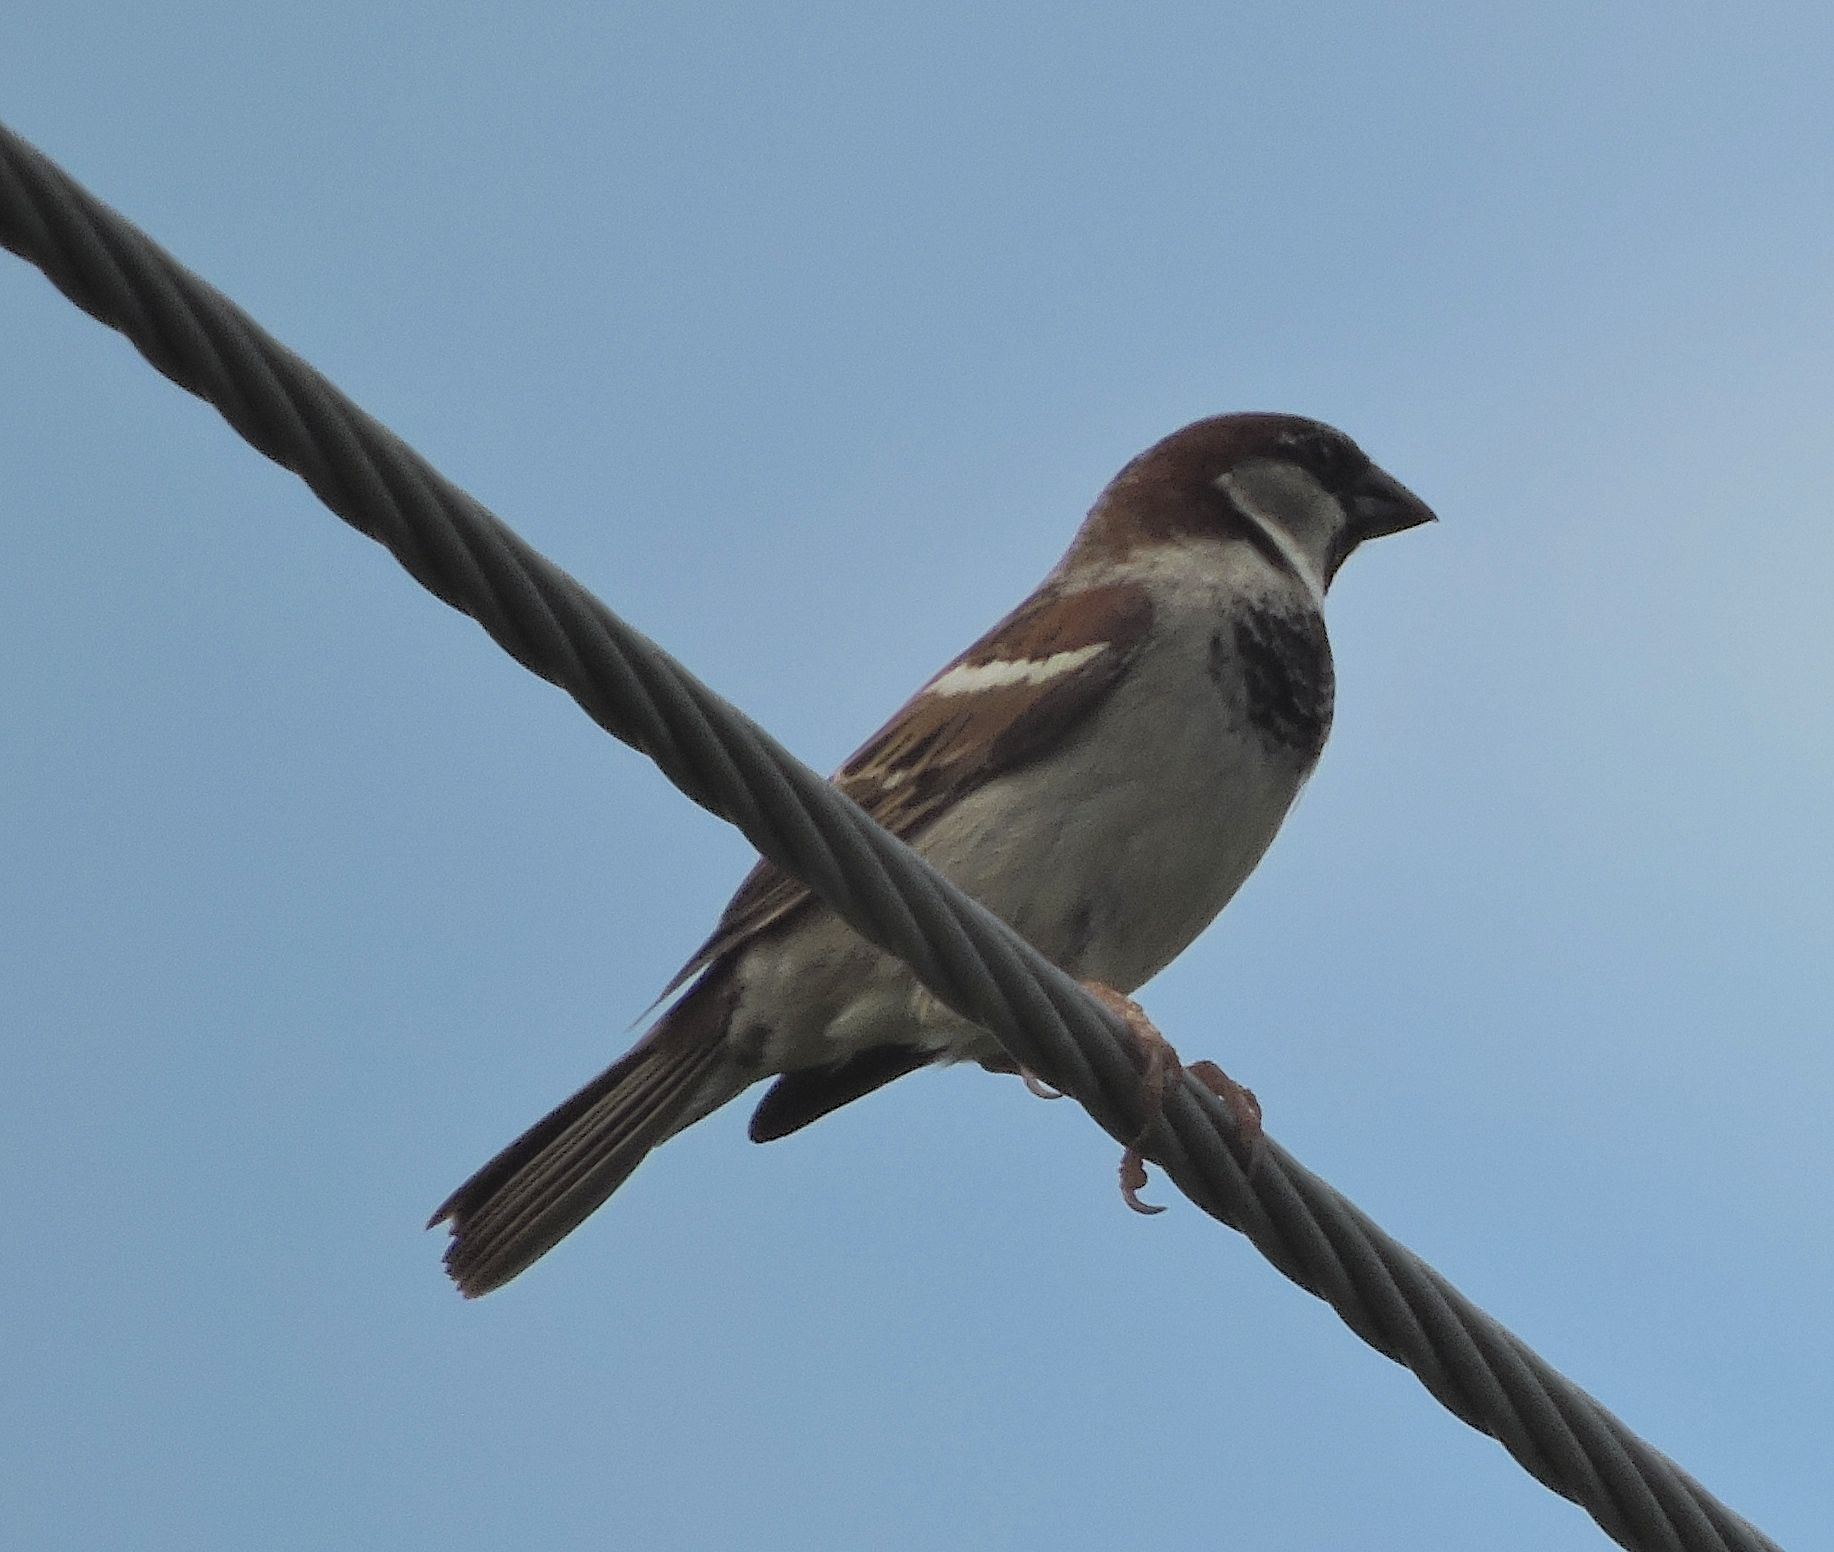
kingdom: Animalia
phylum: Chordata
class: Aves
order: Passeriformes
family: Passeridae
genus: Passer
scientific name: Passer domesticus
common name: House sparrow
